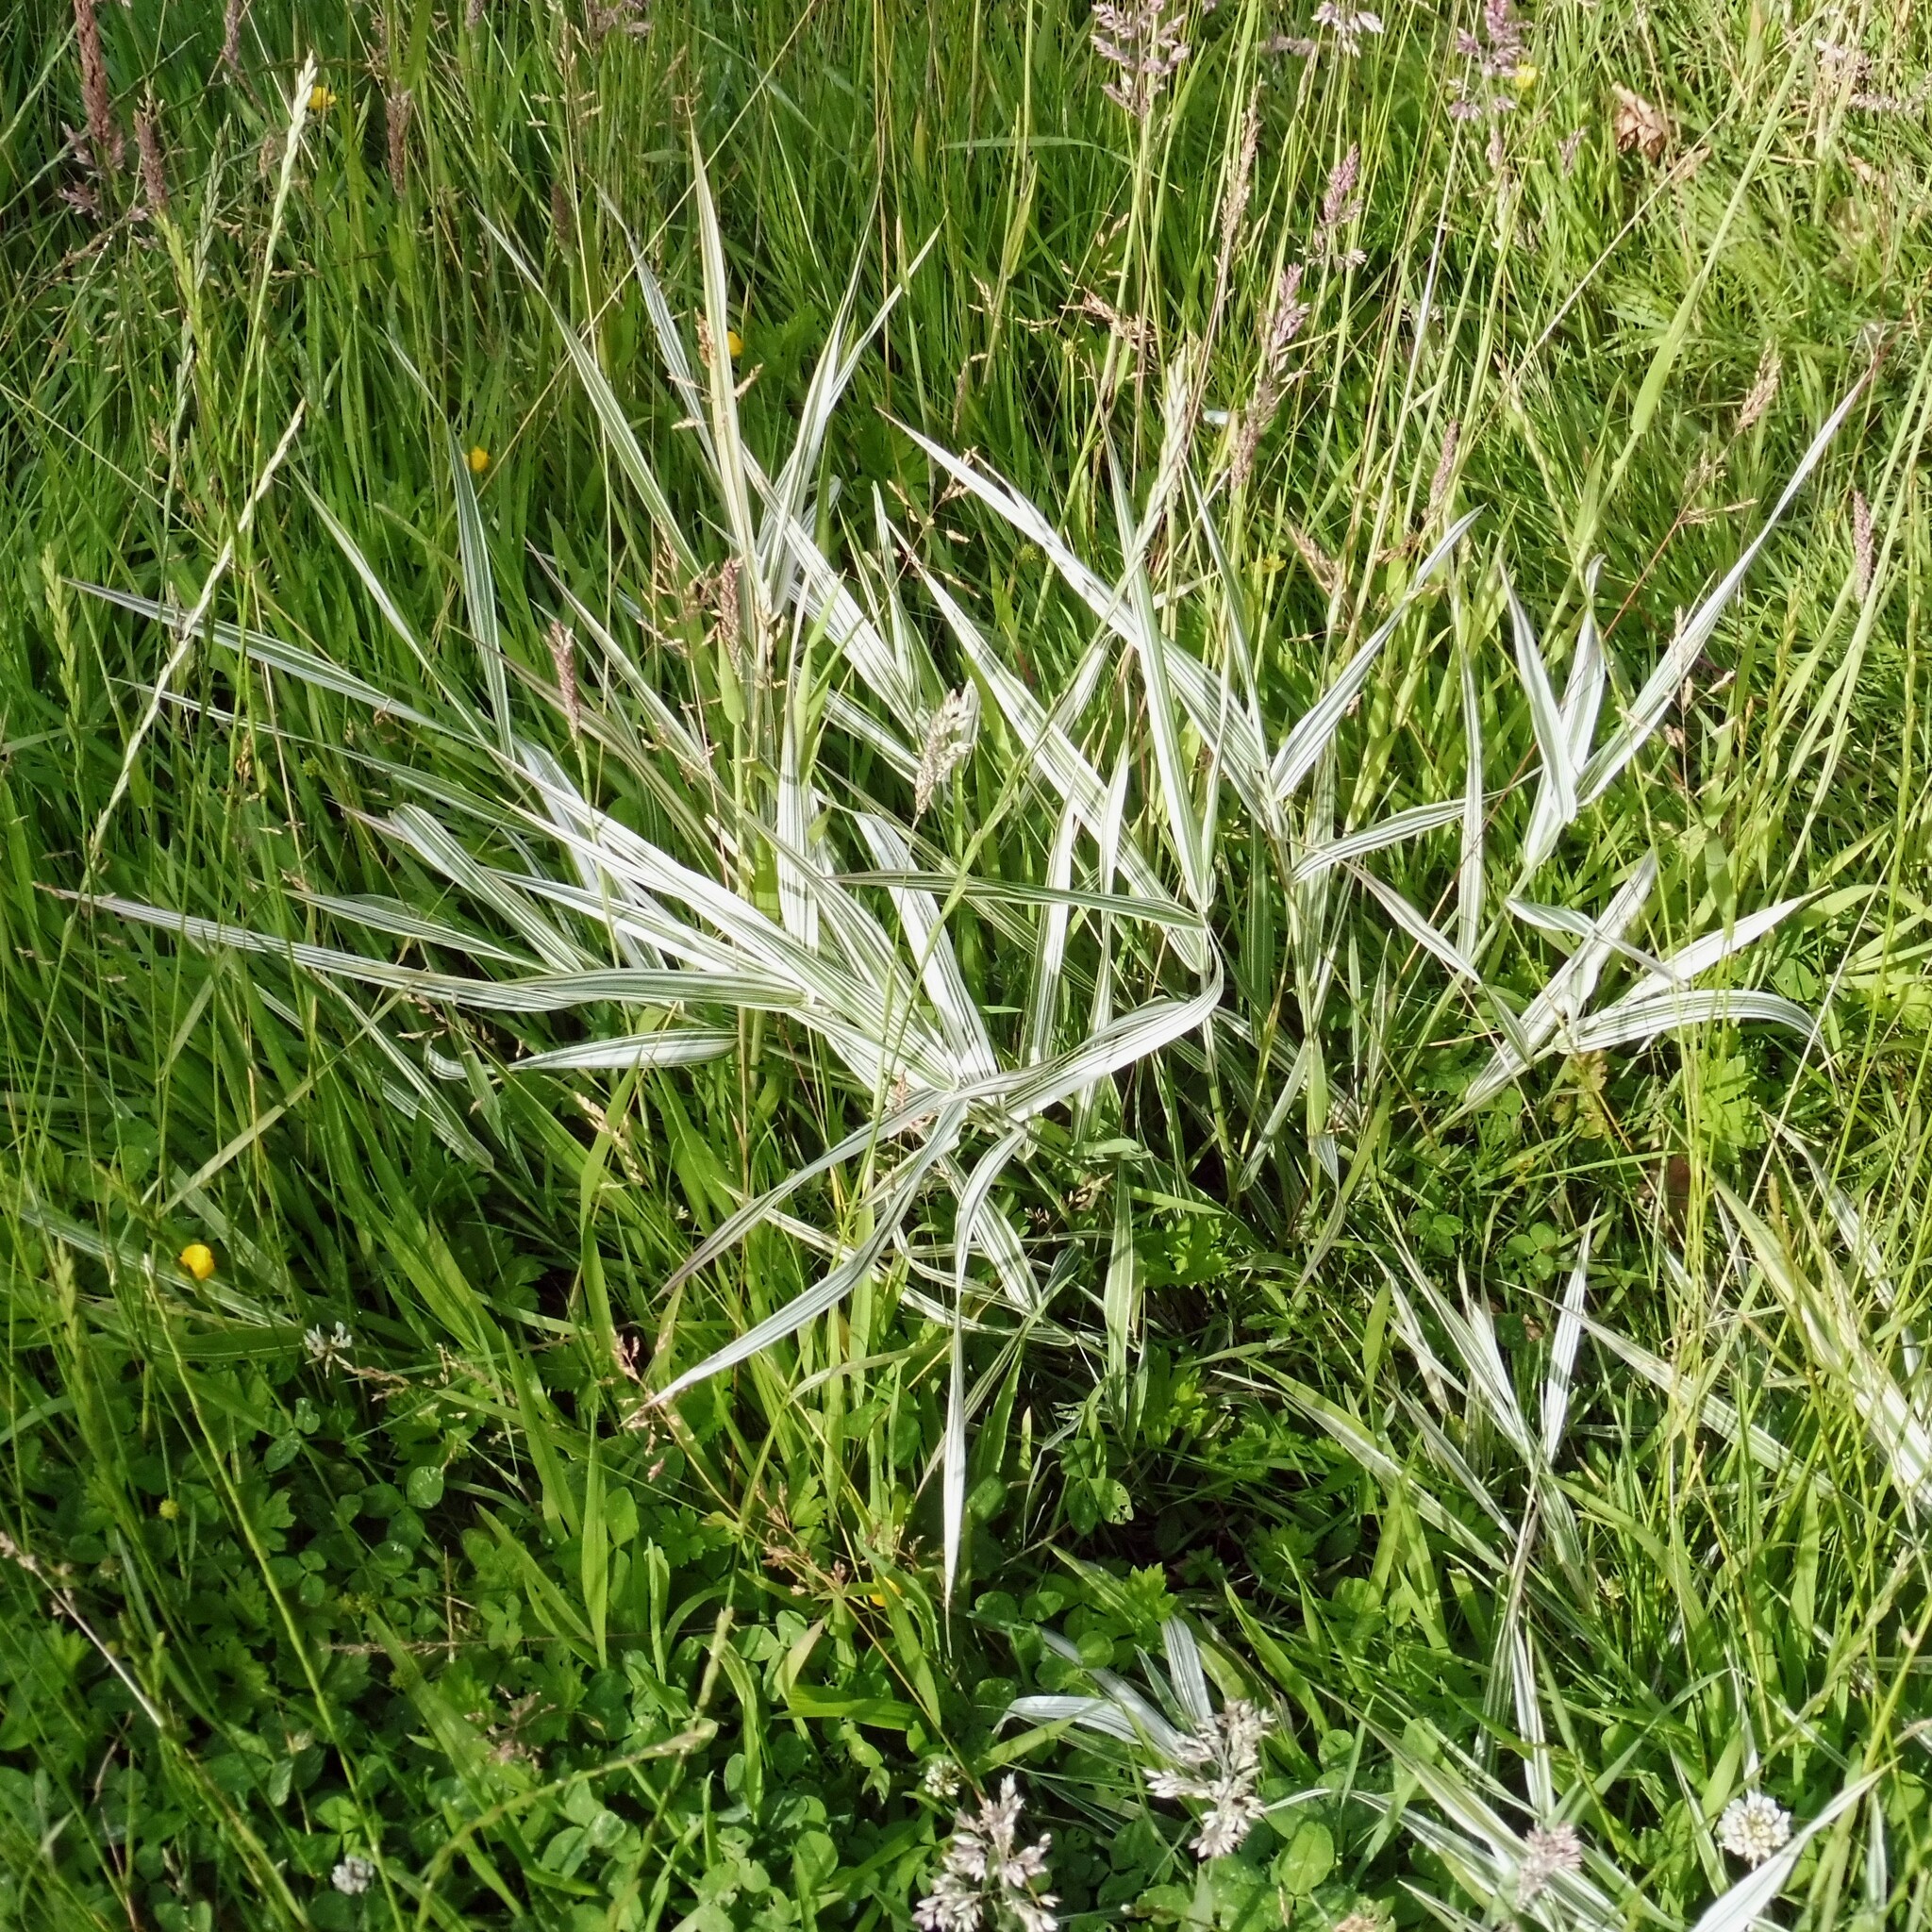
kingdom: Plantae
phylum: Tracheophyta
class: Liliopsida
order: Poales
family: Poaceae
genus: Phalaris
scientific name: Phalaris arundinacea
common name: Reed canary-grass
